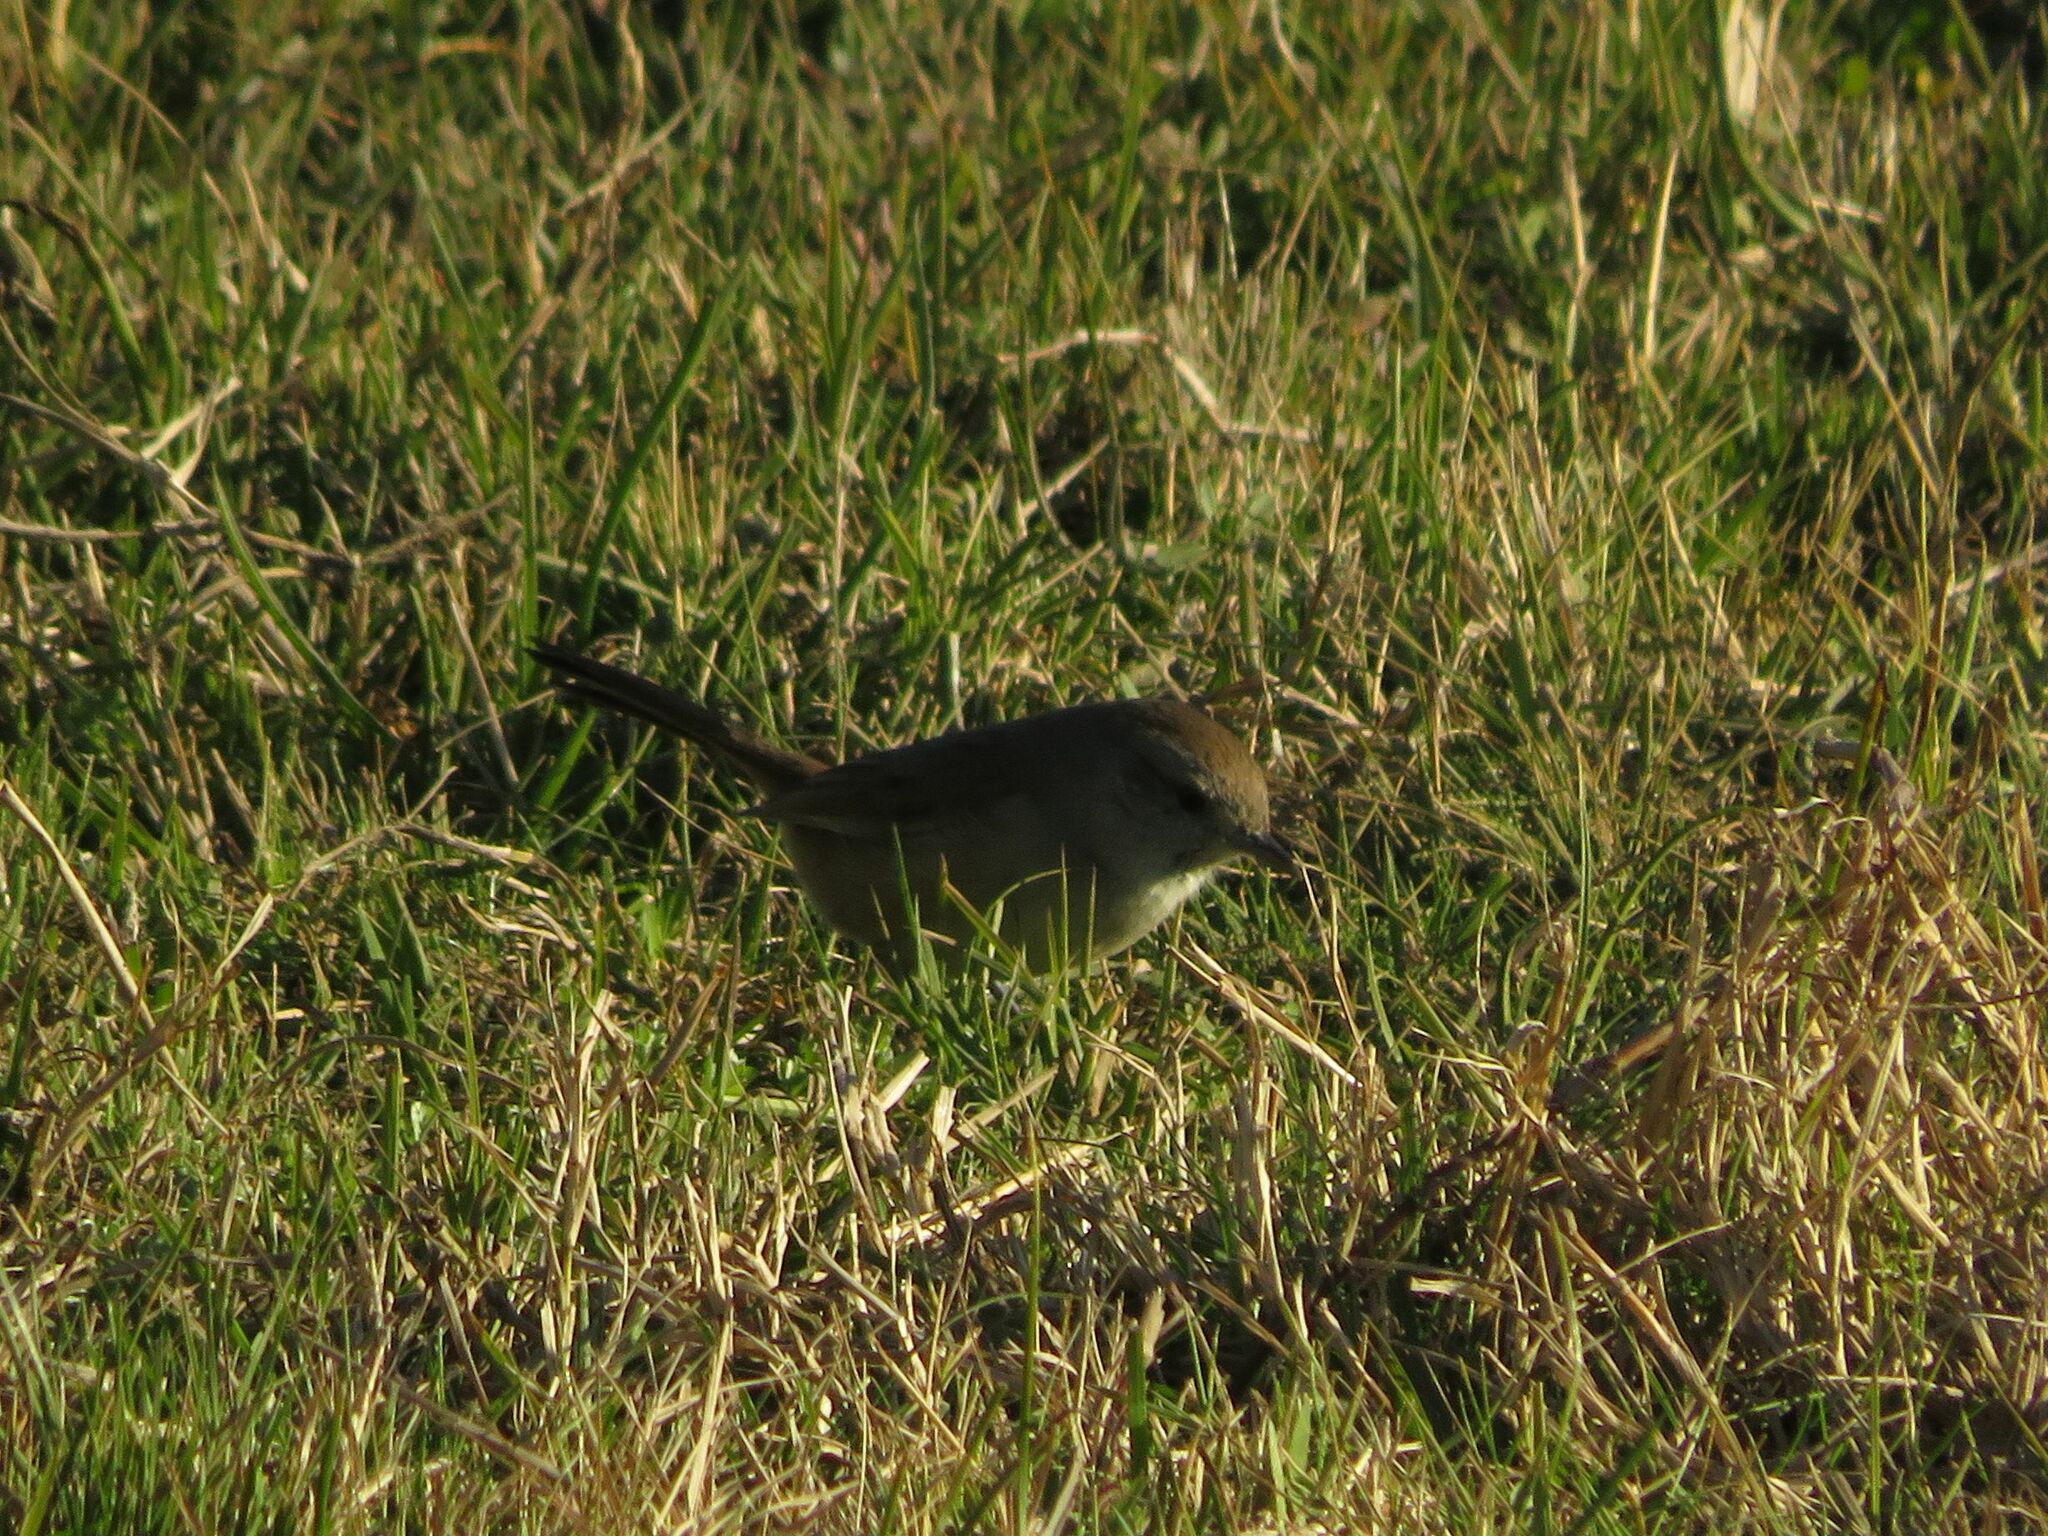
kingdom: Animalia
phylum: Chordata
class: Aves
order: Passeriformes
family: Furnariidae
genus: Asthenes
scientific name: Asthenes baeri
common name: Short-billed canastero
